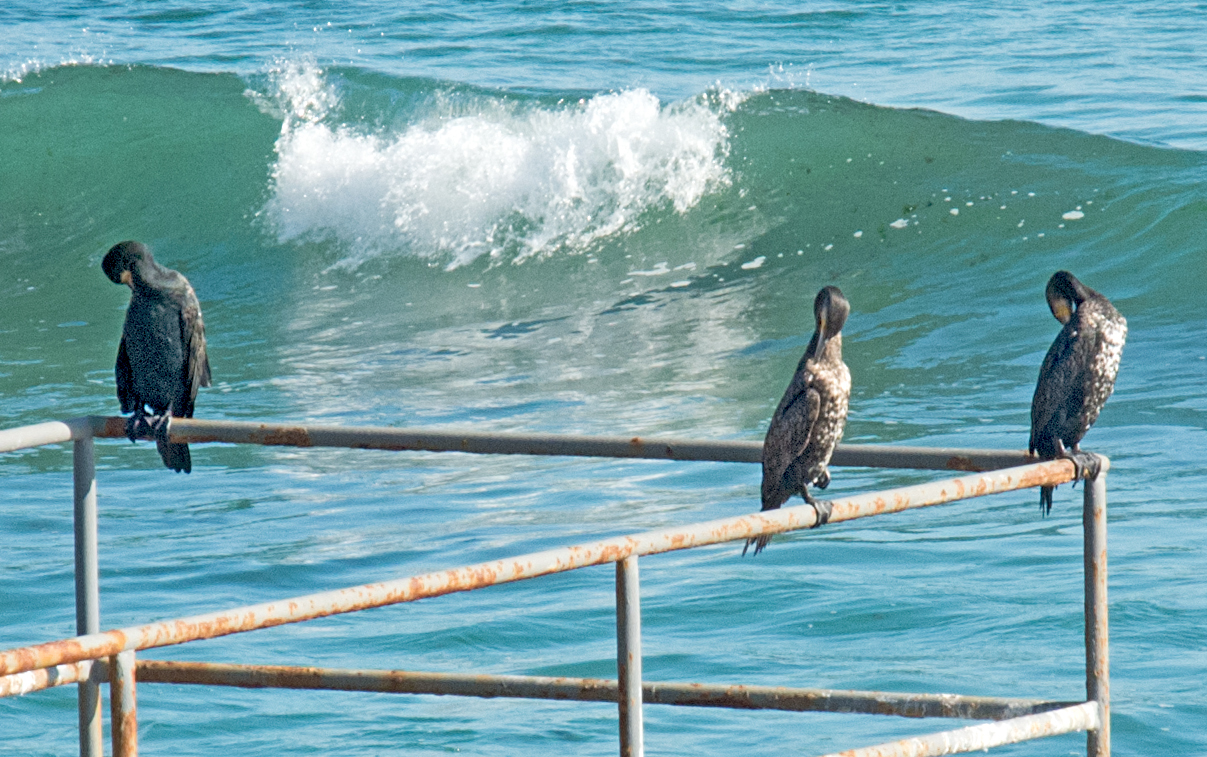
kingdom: Animalia
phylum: Chordata
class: Aves
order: Suliformes
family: Phalacrocoracidae
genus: Phalacrocorax
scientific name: Phalacrocorax carbo
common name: Great cormorant
